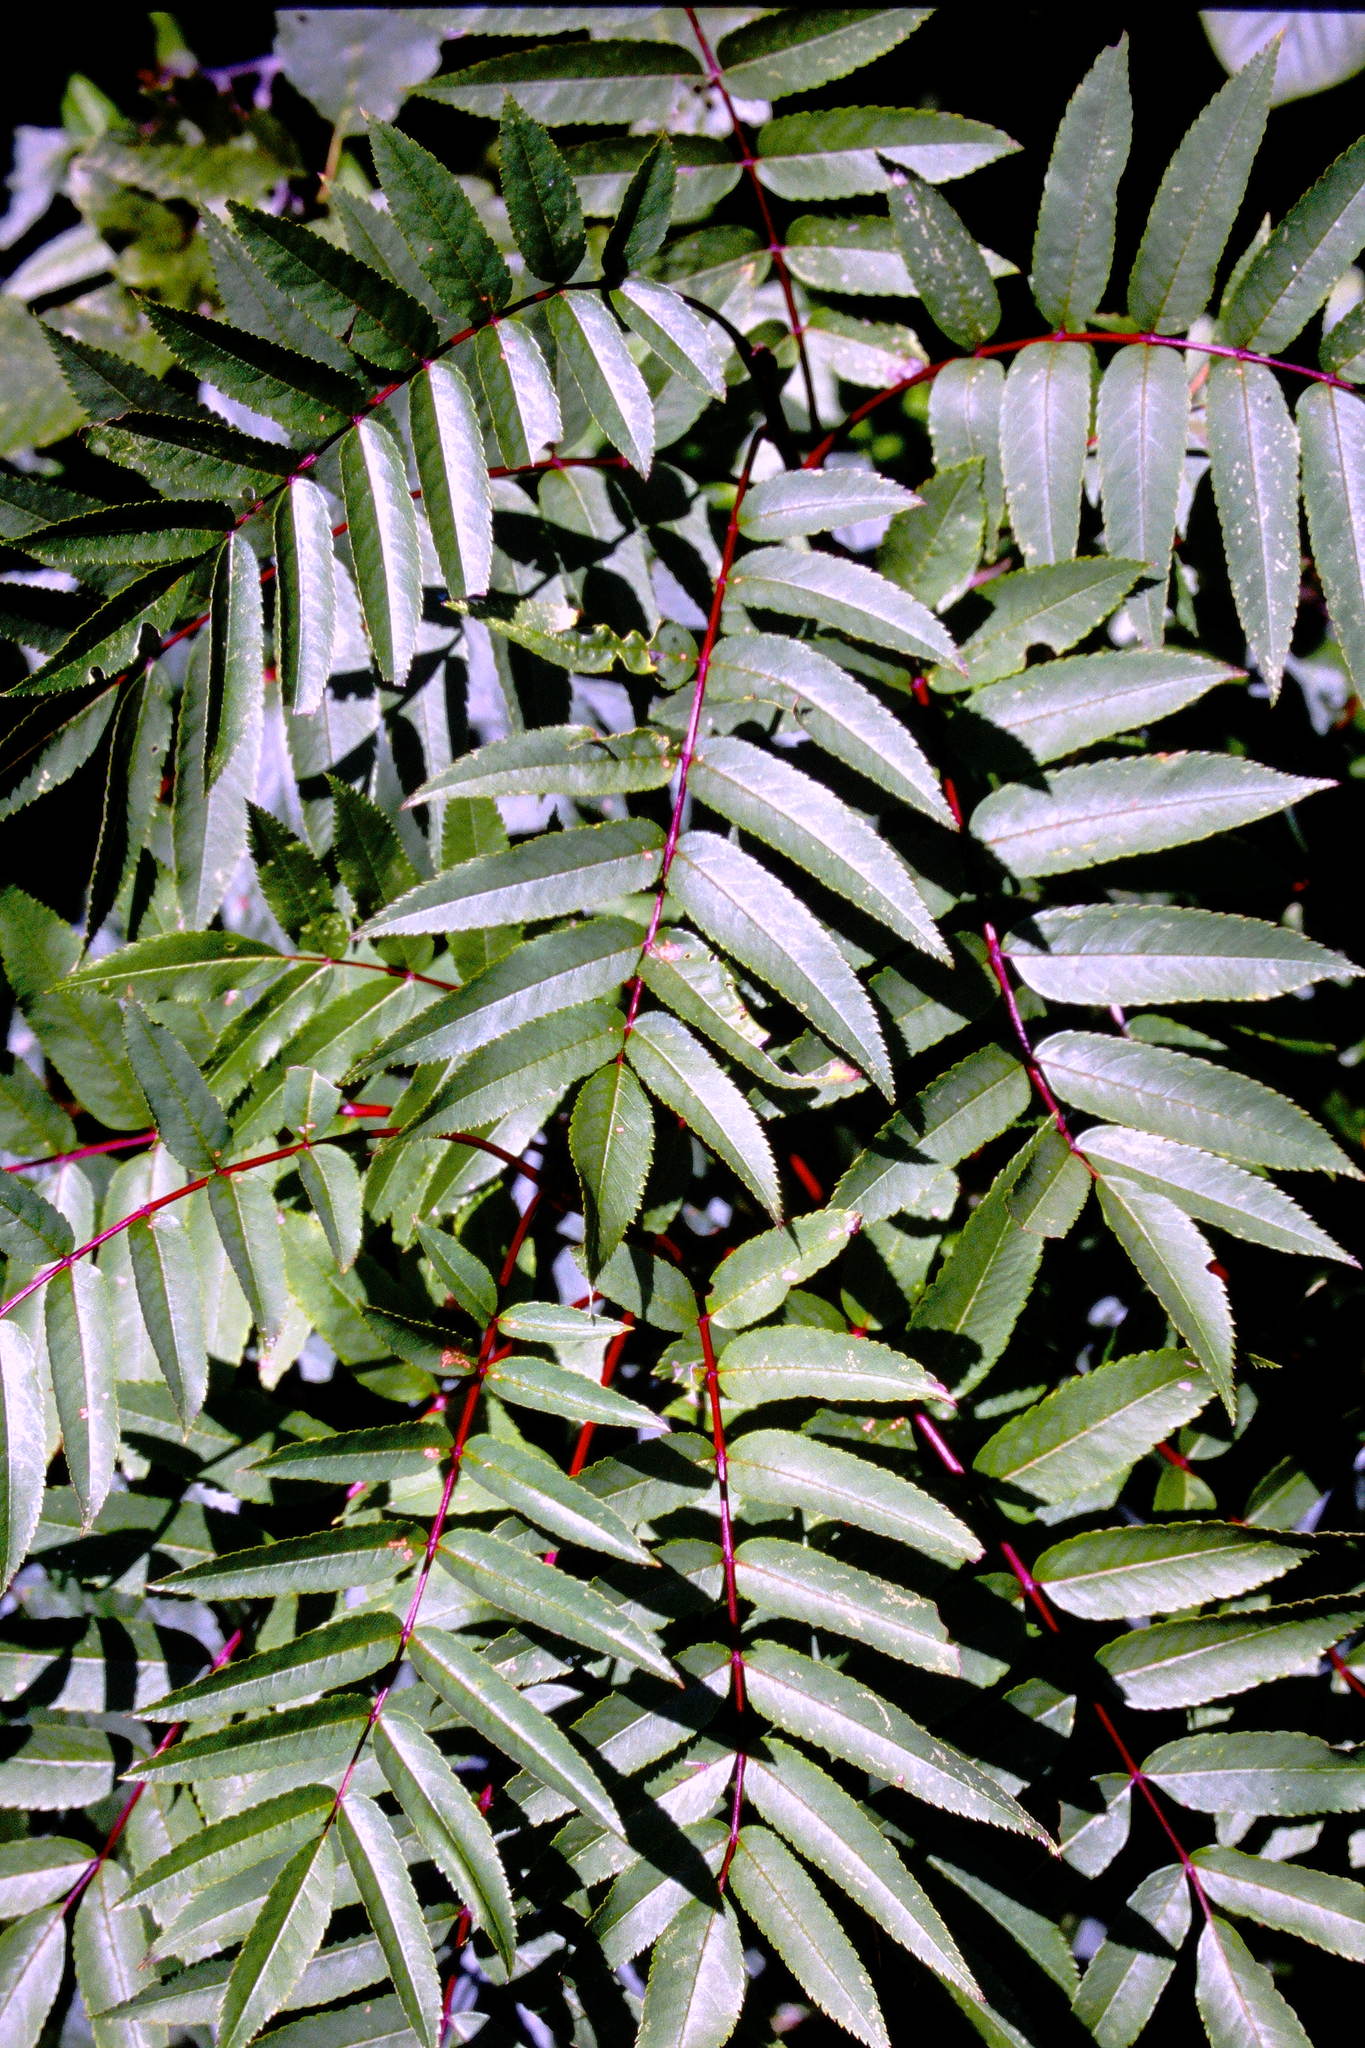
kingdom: Plantae
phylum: Tracheophyta
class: Magnoliopsida
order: Rosales
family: Rosaceae
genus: Sorbus
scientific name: Sorbus americana
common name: American mountain-ash
